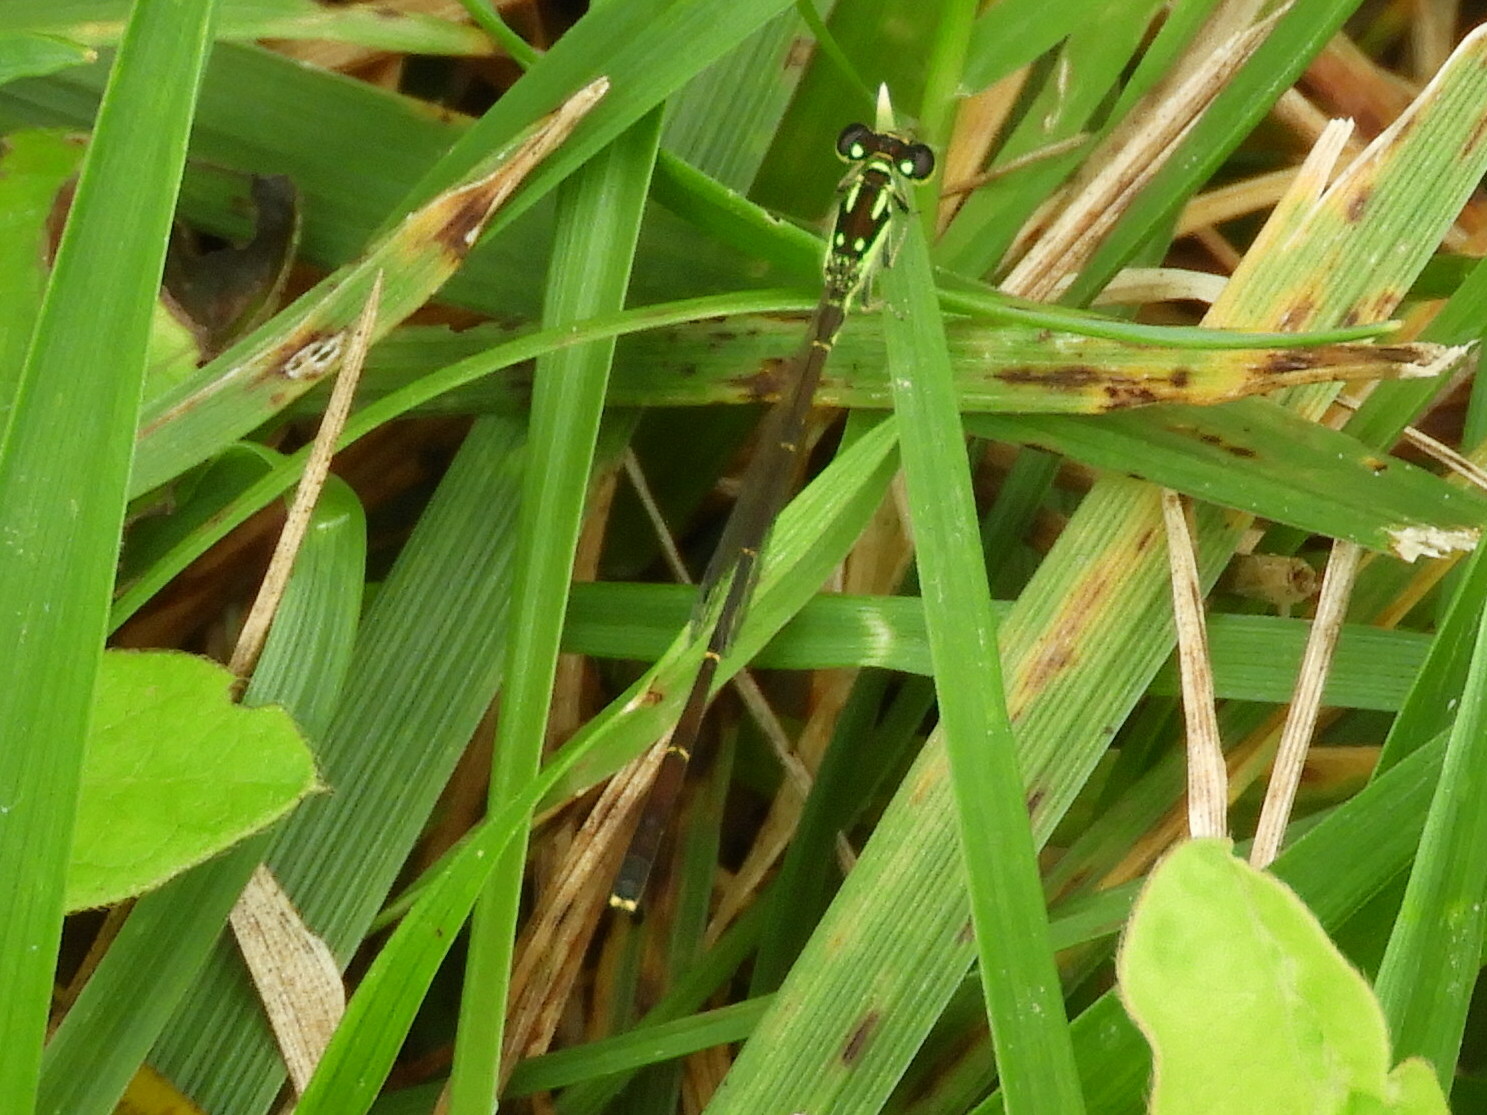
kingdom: Animalia
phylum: Arthropoda
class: Insecta
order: Odonata
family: Coenagrionidae
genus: Ischnura
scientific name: Ischnura posita
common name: Fragile forktail
